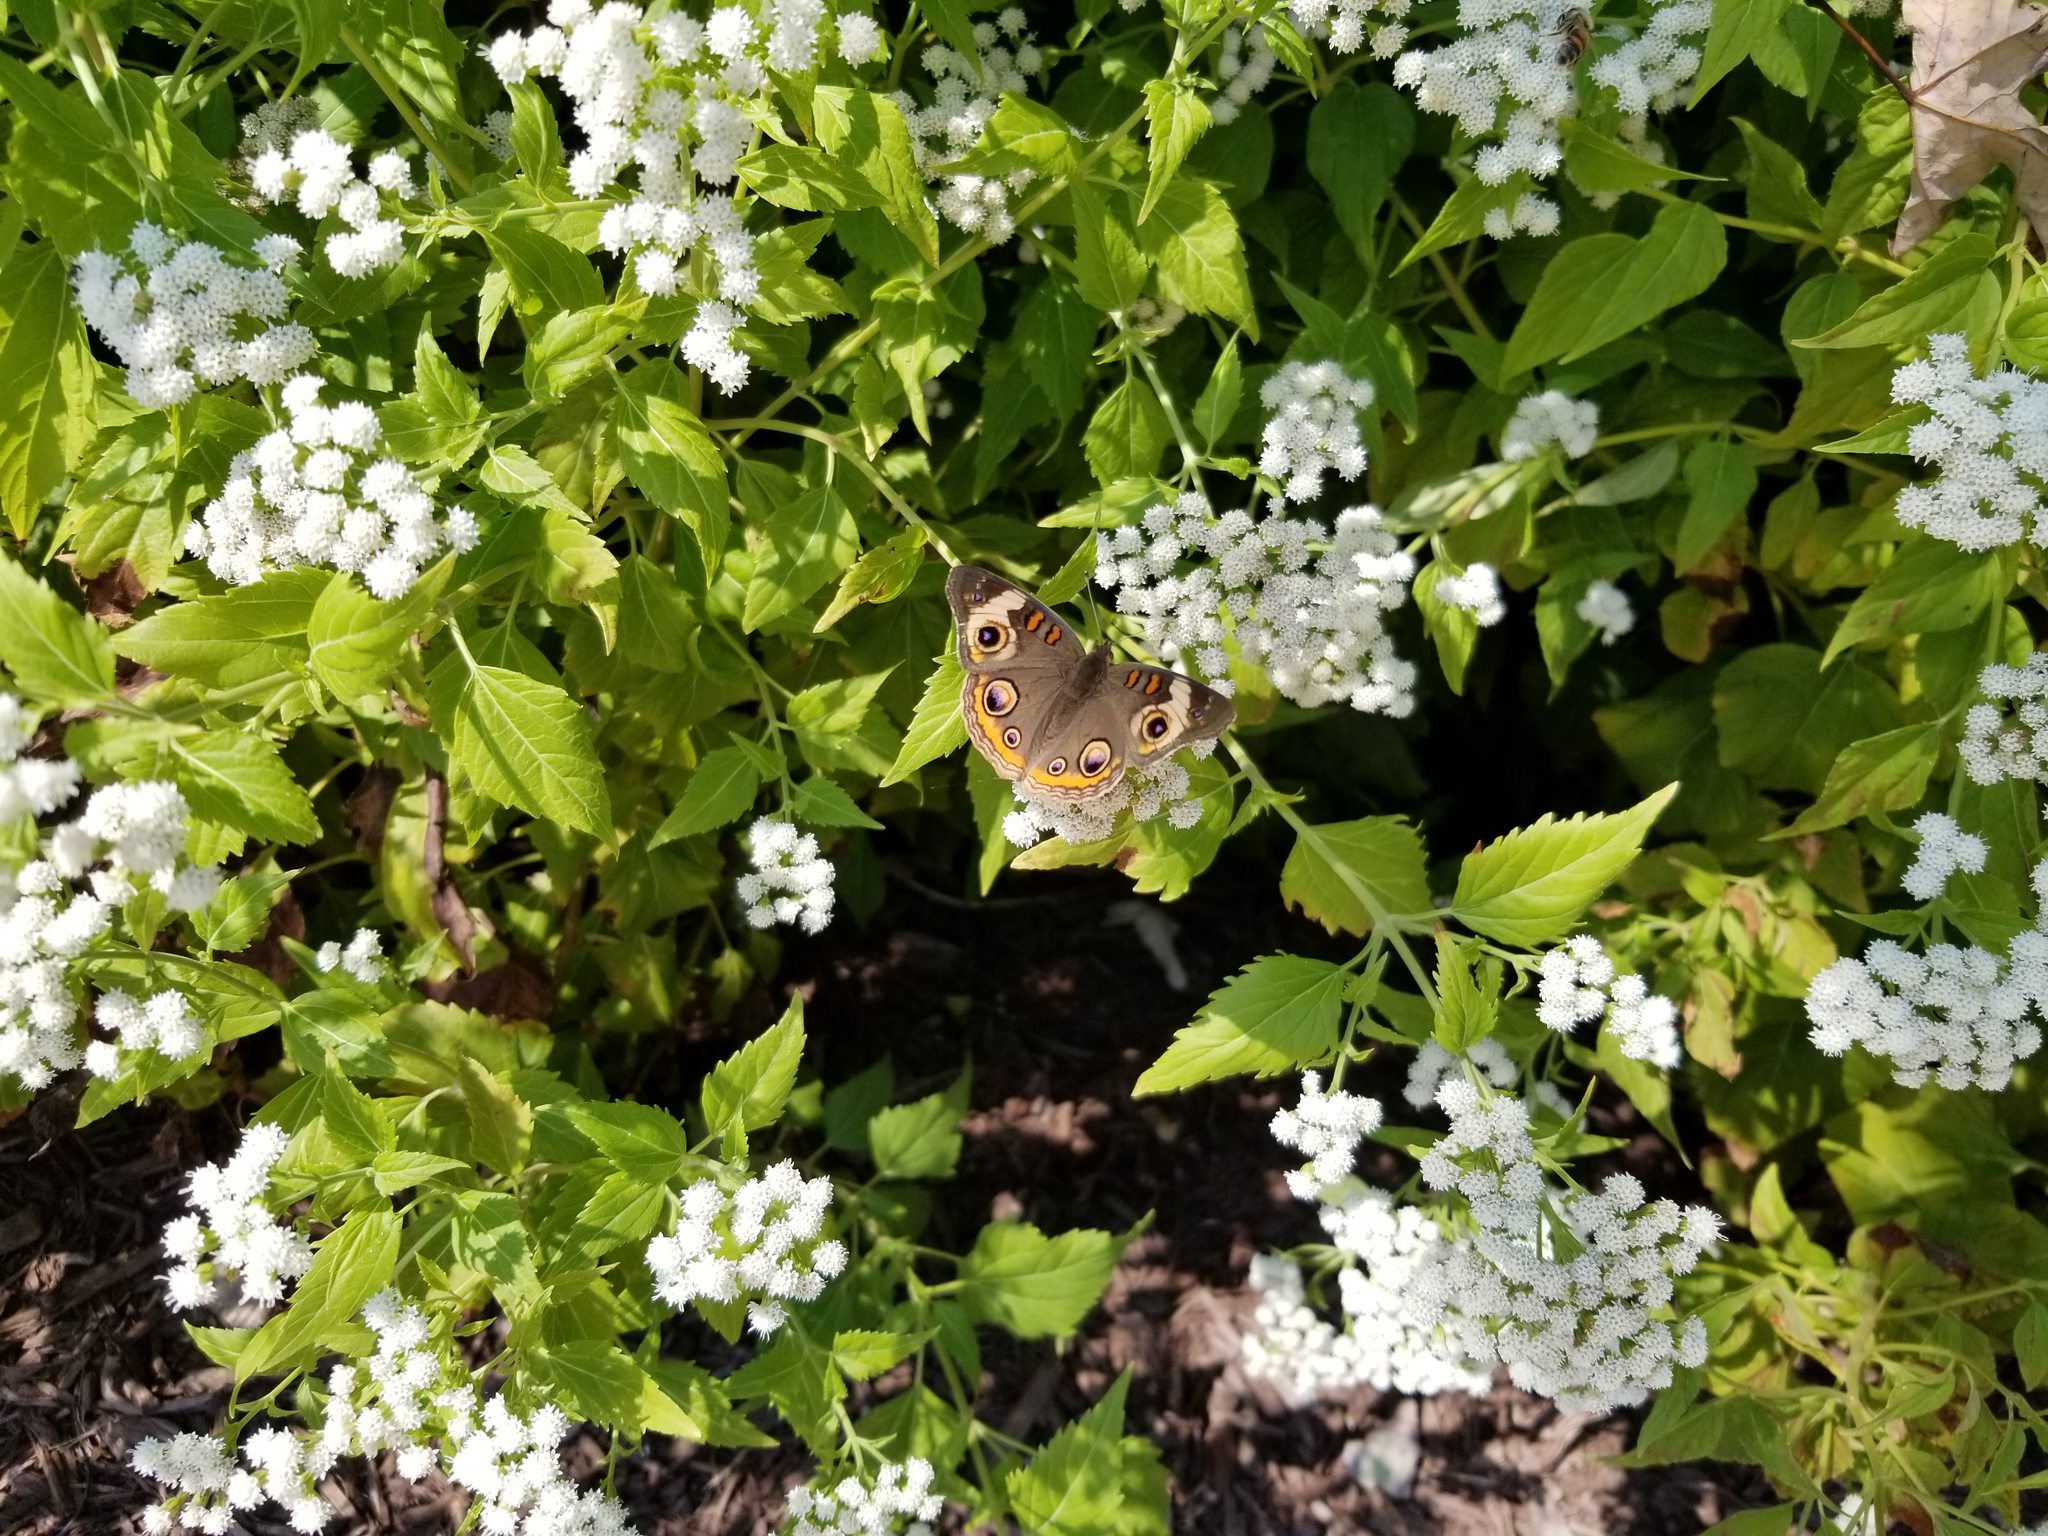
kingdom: Animalia
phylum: Arthropoda
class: Insecta
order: Lepidoptera
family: Nymphalidae
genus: Junonia
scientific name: Junonia coenia
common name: Common buckeye
